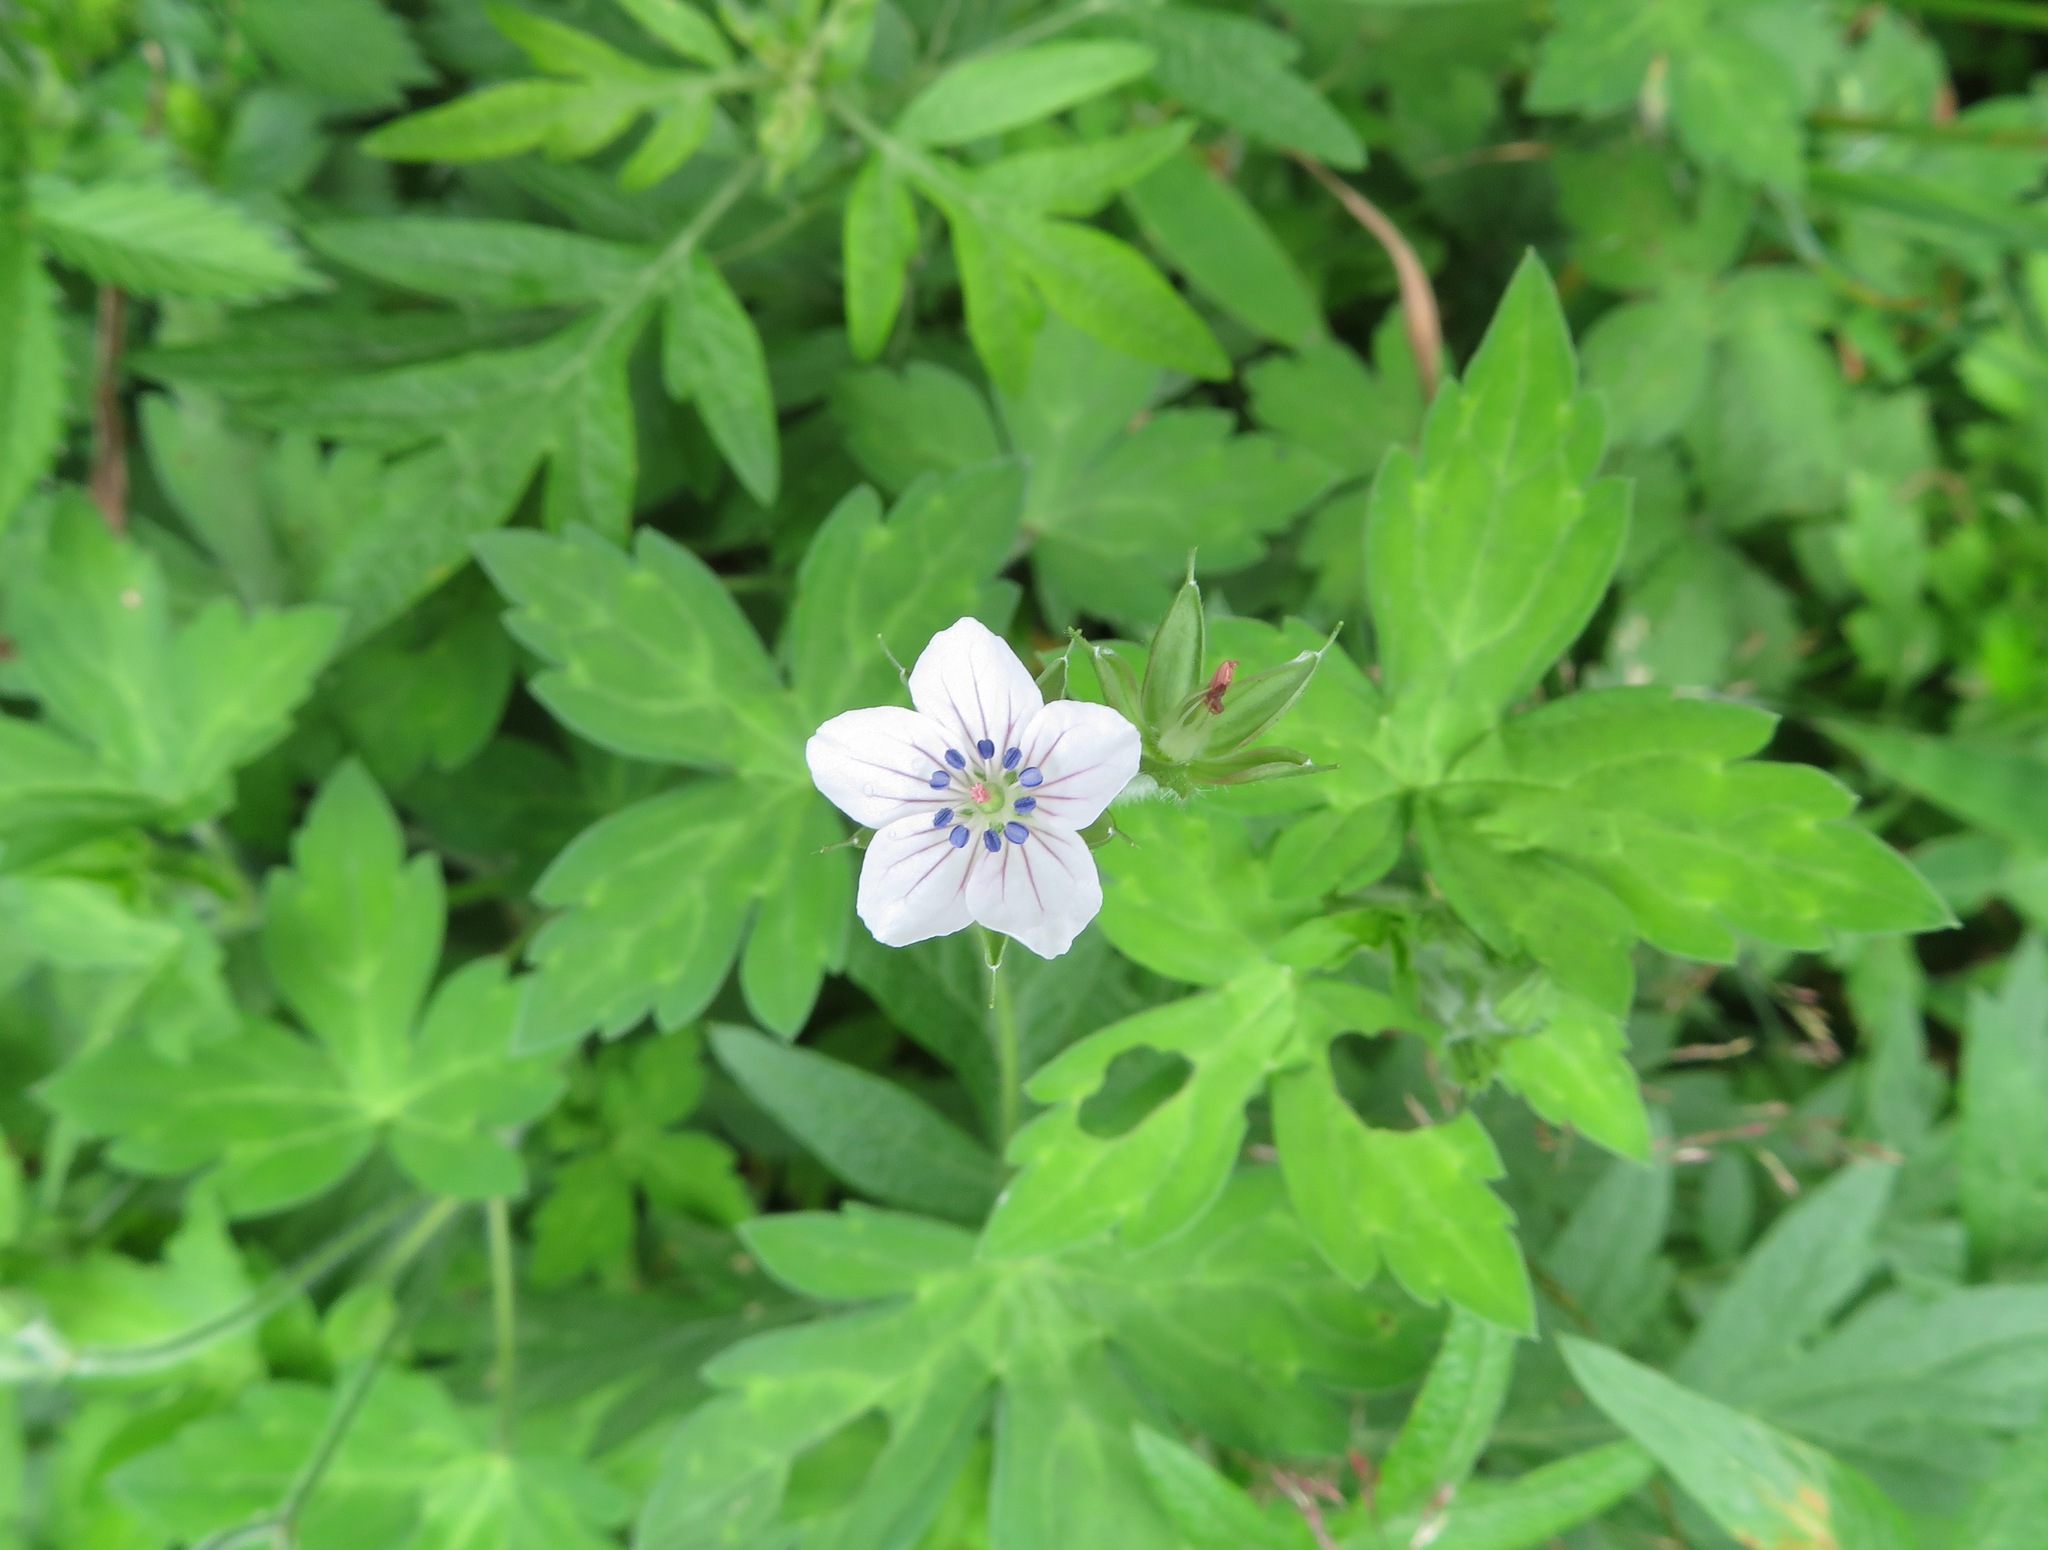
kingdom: Plantae
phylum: Tracheophyta
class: Magnoliopsida
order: Geraniales
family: Geraniaceae
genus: Geranium
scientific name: Geranium thunbergii
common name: Dewdrop crane's-bill
